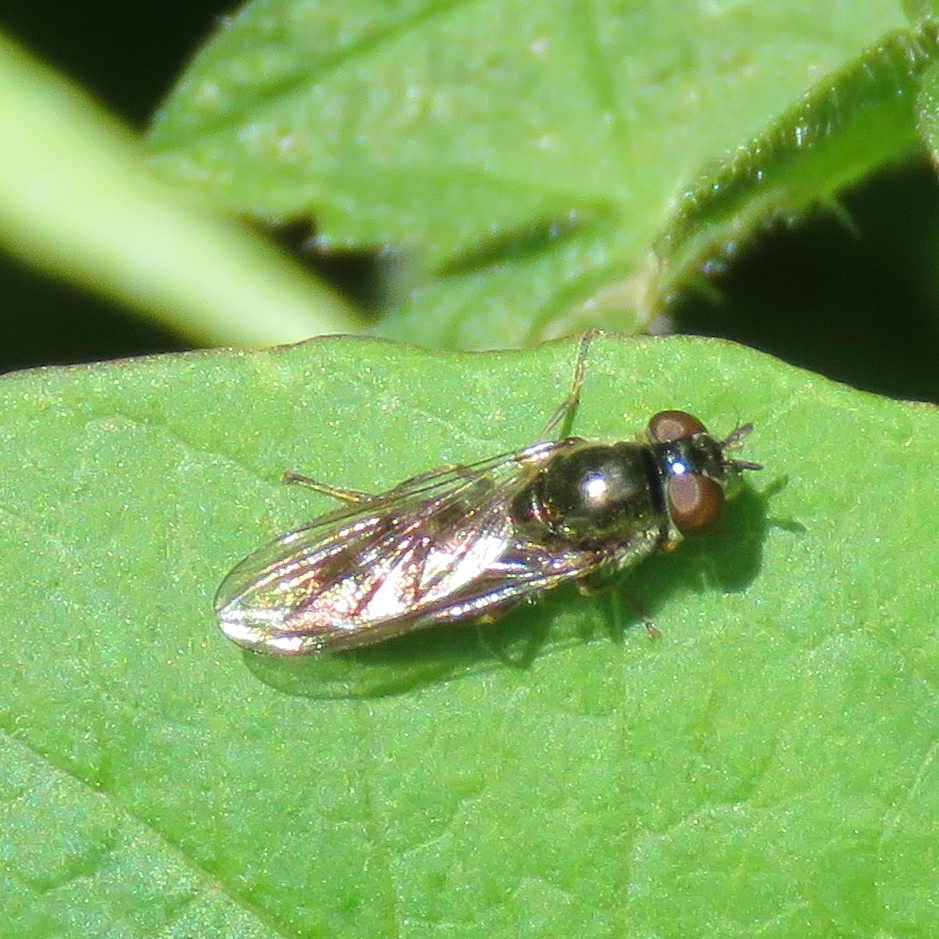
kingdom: Animalia
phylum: Arthropoda
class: Insecta
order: Diptera
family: Syrphidae
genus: Platycheirus
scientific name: Platycheirus albimanus
